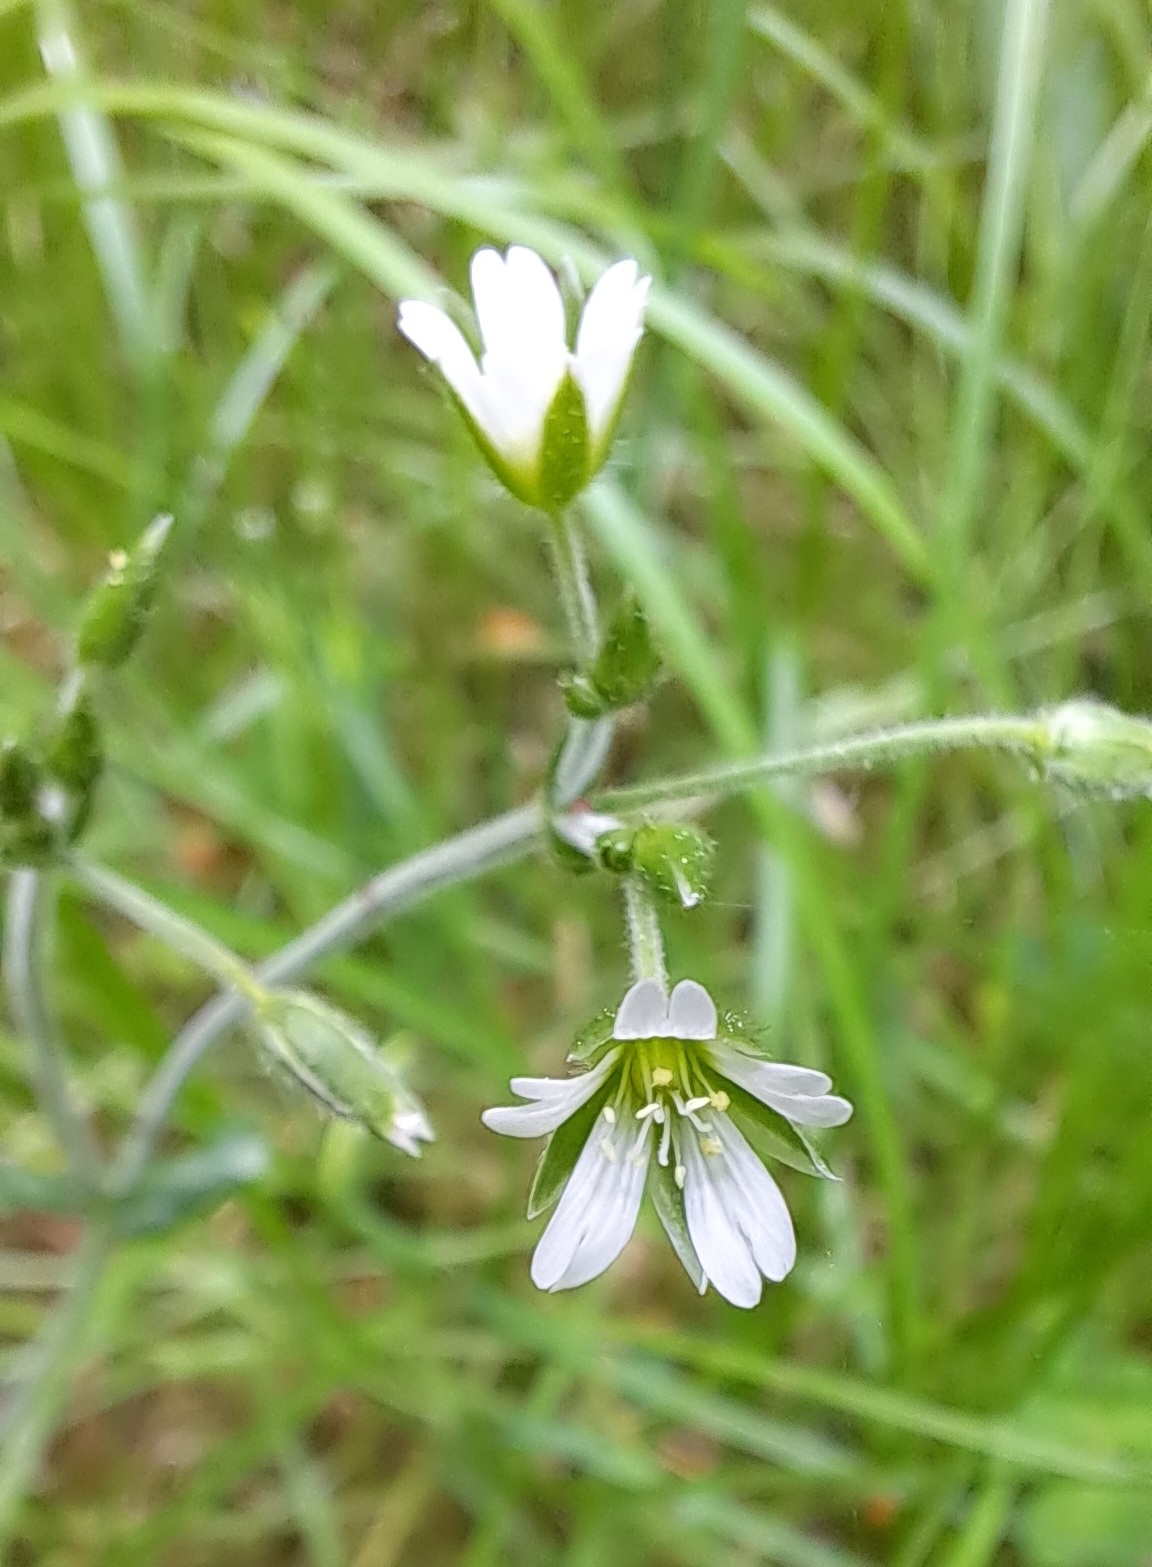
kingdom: Plantae
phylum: Tracheophyta
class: Magnoliopsida
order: Caryophyllales
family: Caryophyllaceae
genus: Cerastium
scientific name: Cerastium holosteoides
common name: Big chickweed
